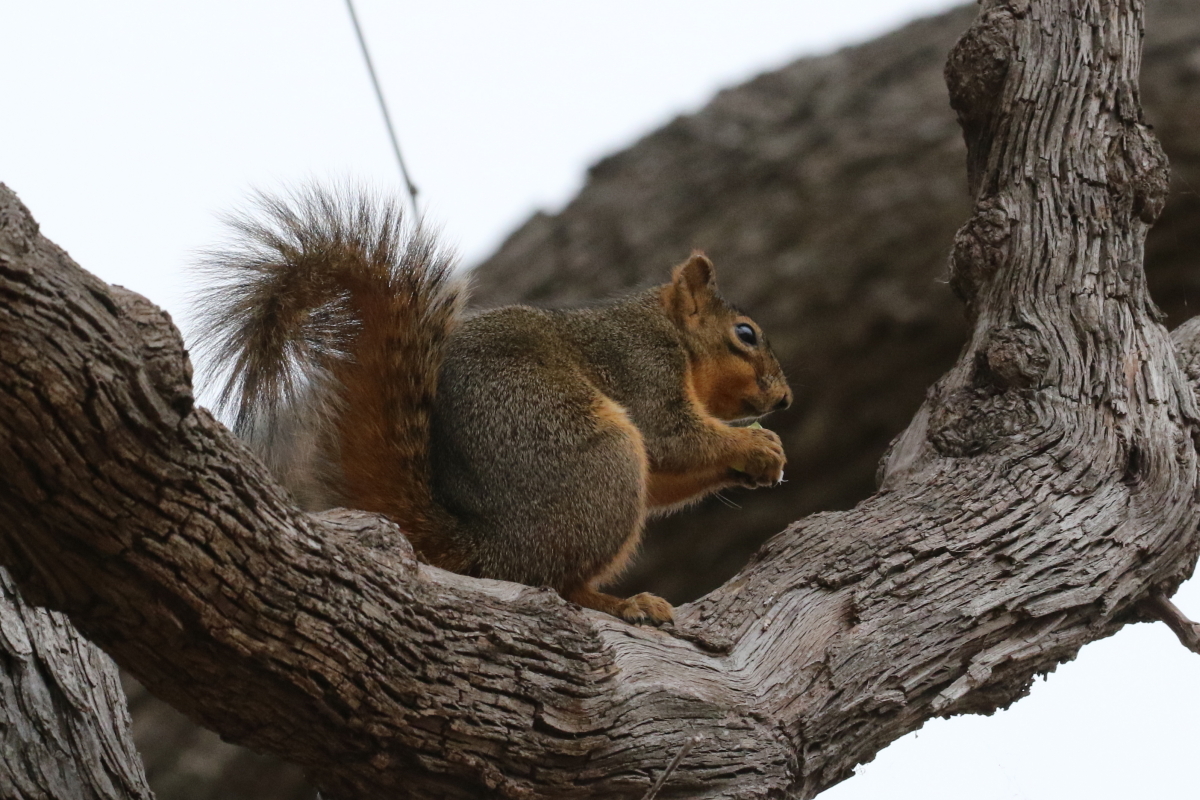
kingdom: Animalia
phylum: Chordata
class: Mammalia
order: Rodentia
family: Sciuridae
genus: Sciurus
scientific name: Sciurus niger
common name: Fox squirrel
